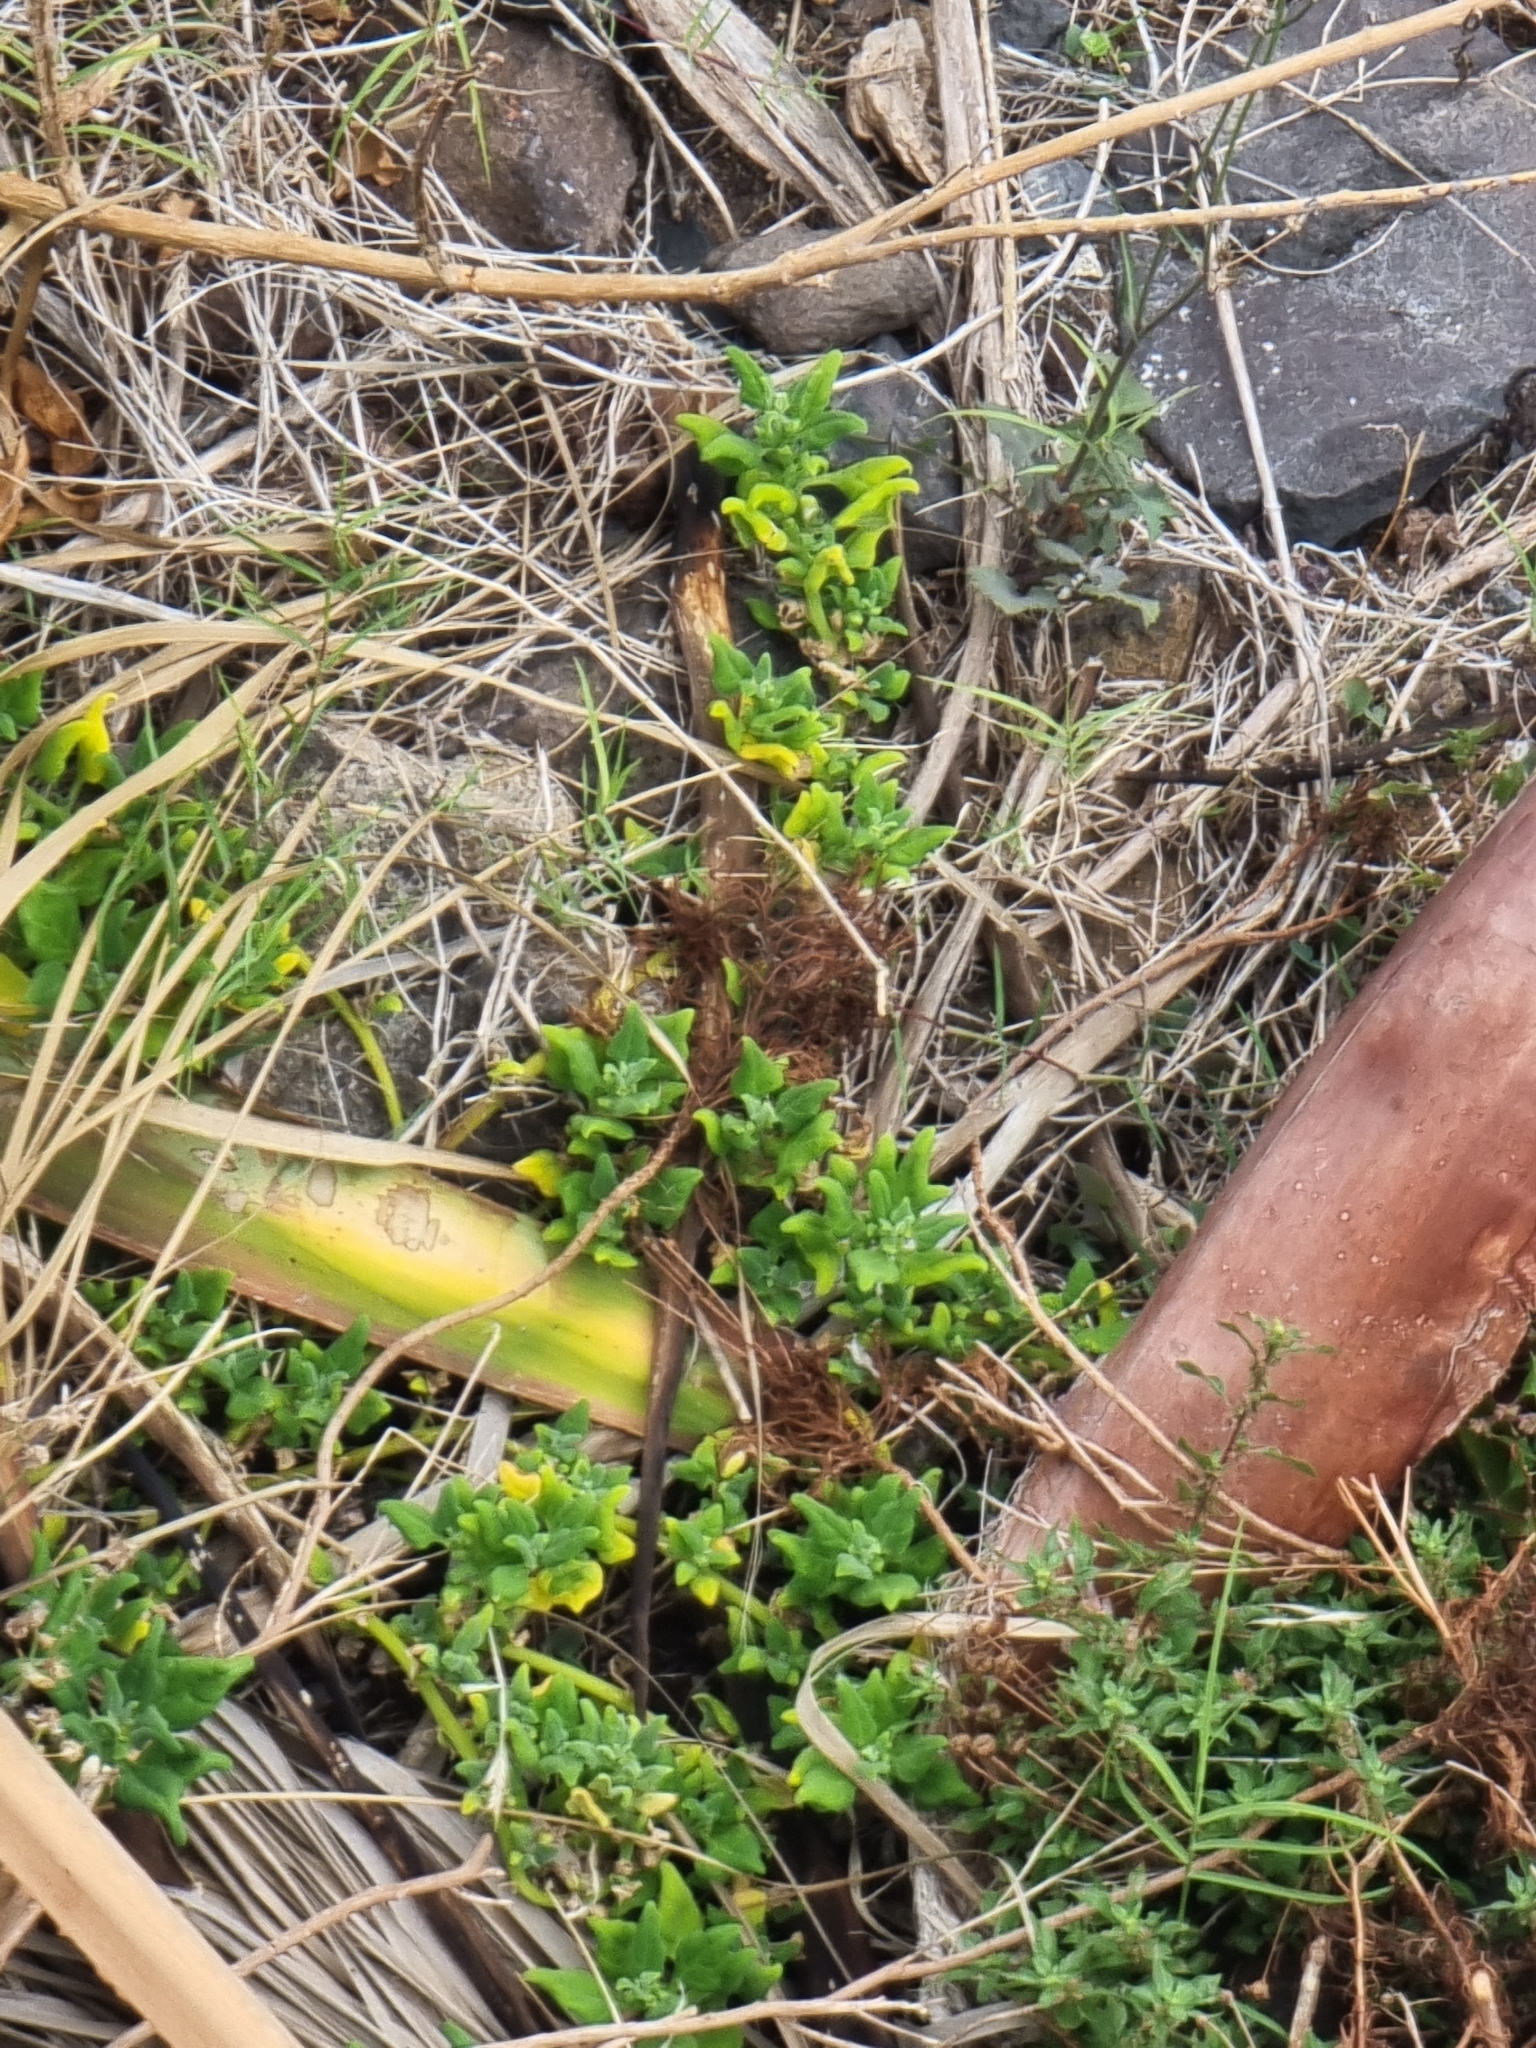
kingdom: Plantae
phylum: Tracheophyta
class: Magnoliopsida
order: Caryophyllales
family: Aizoaceae
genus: Tetragonia
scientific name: Tetragonia tetragonoides
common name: New zealand-spinach
